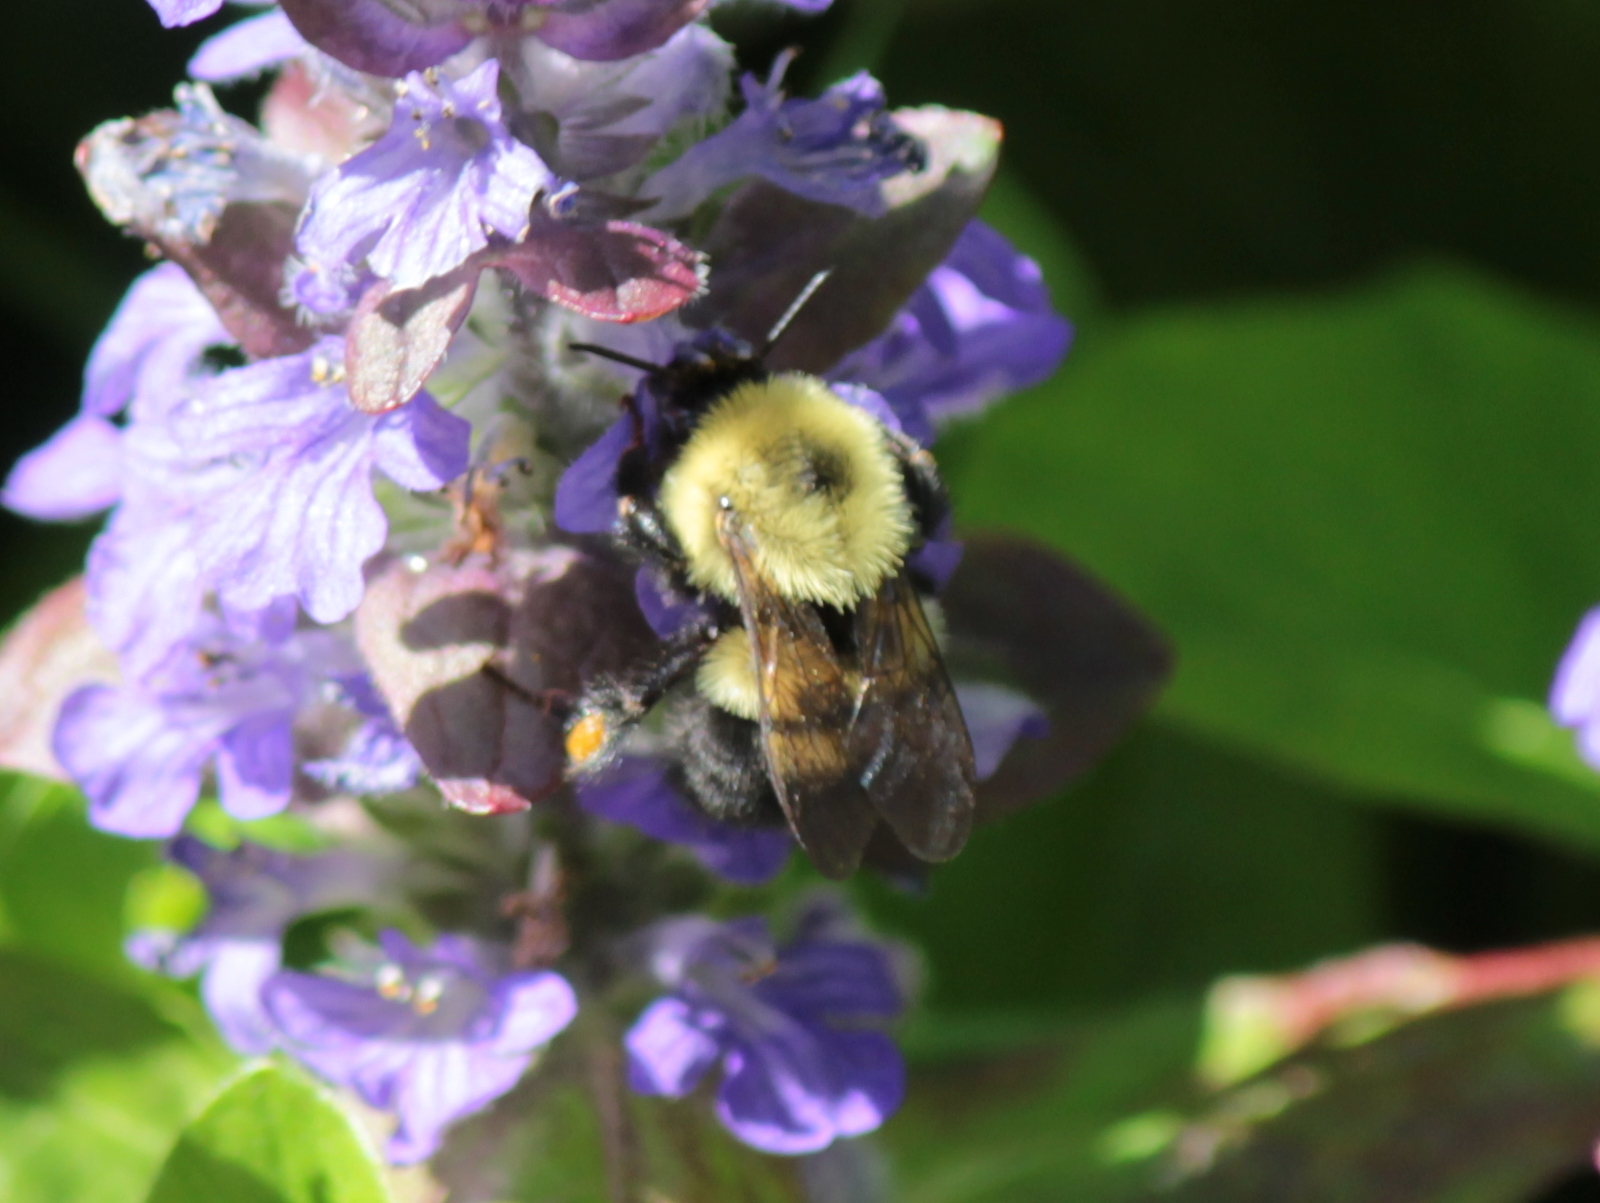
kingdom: Animalia
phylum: Arthropoda
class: Insecta
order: Hymenoptera
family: Apidae
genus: Bombus
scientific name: Bombus bimaculatus
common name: Two-spotted bumble bee
